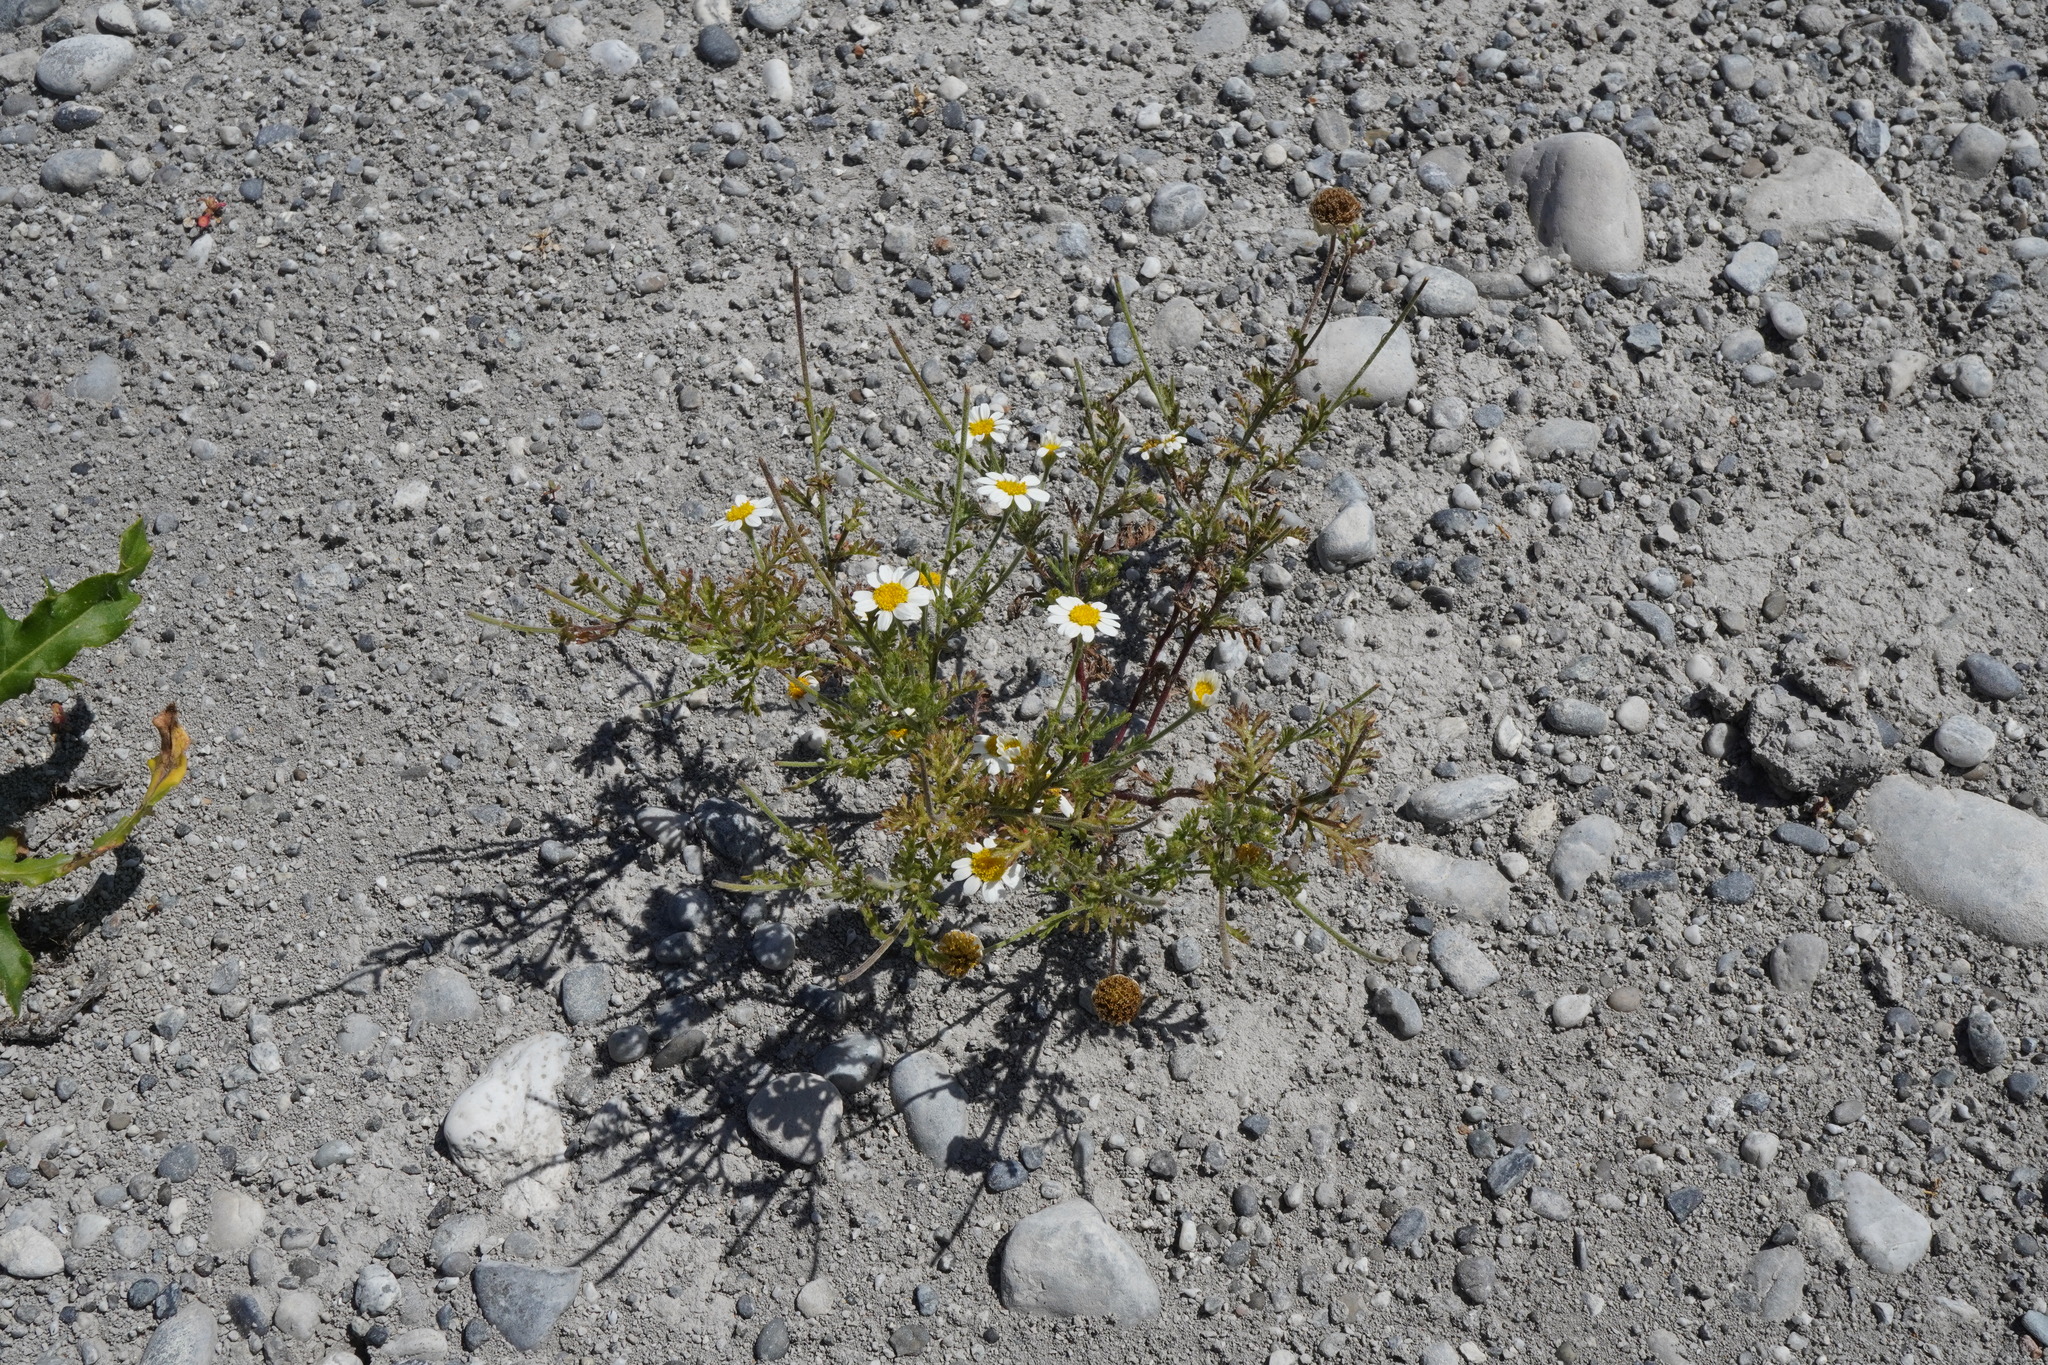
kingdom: Plantae
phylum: Tracheophyta
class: Magnoliopsida
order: Asterales
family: Asteraceae
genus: Cota
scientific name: Cota austriaca
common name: Austrian chamomile
